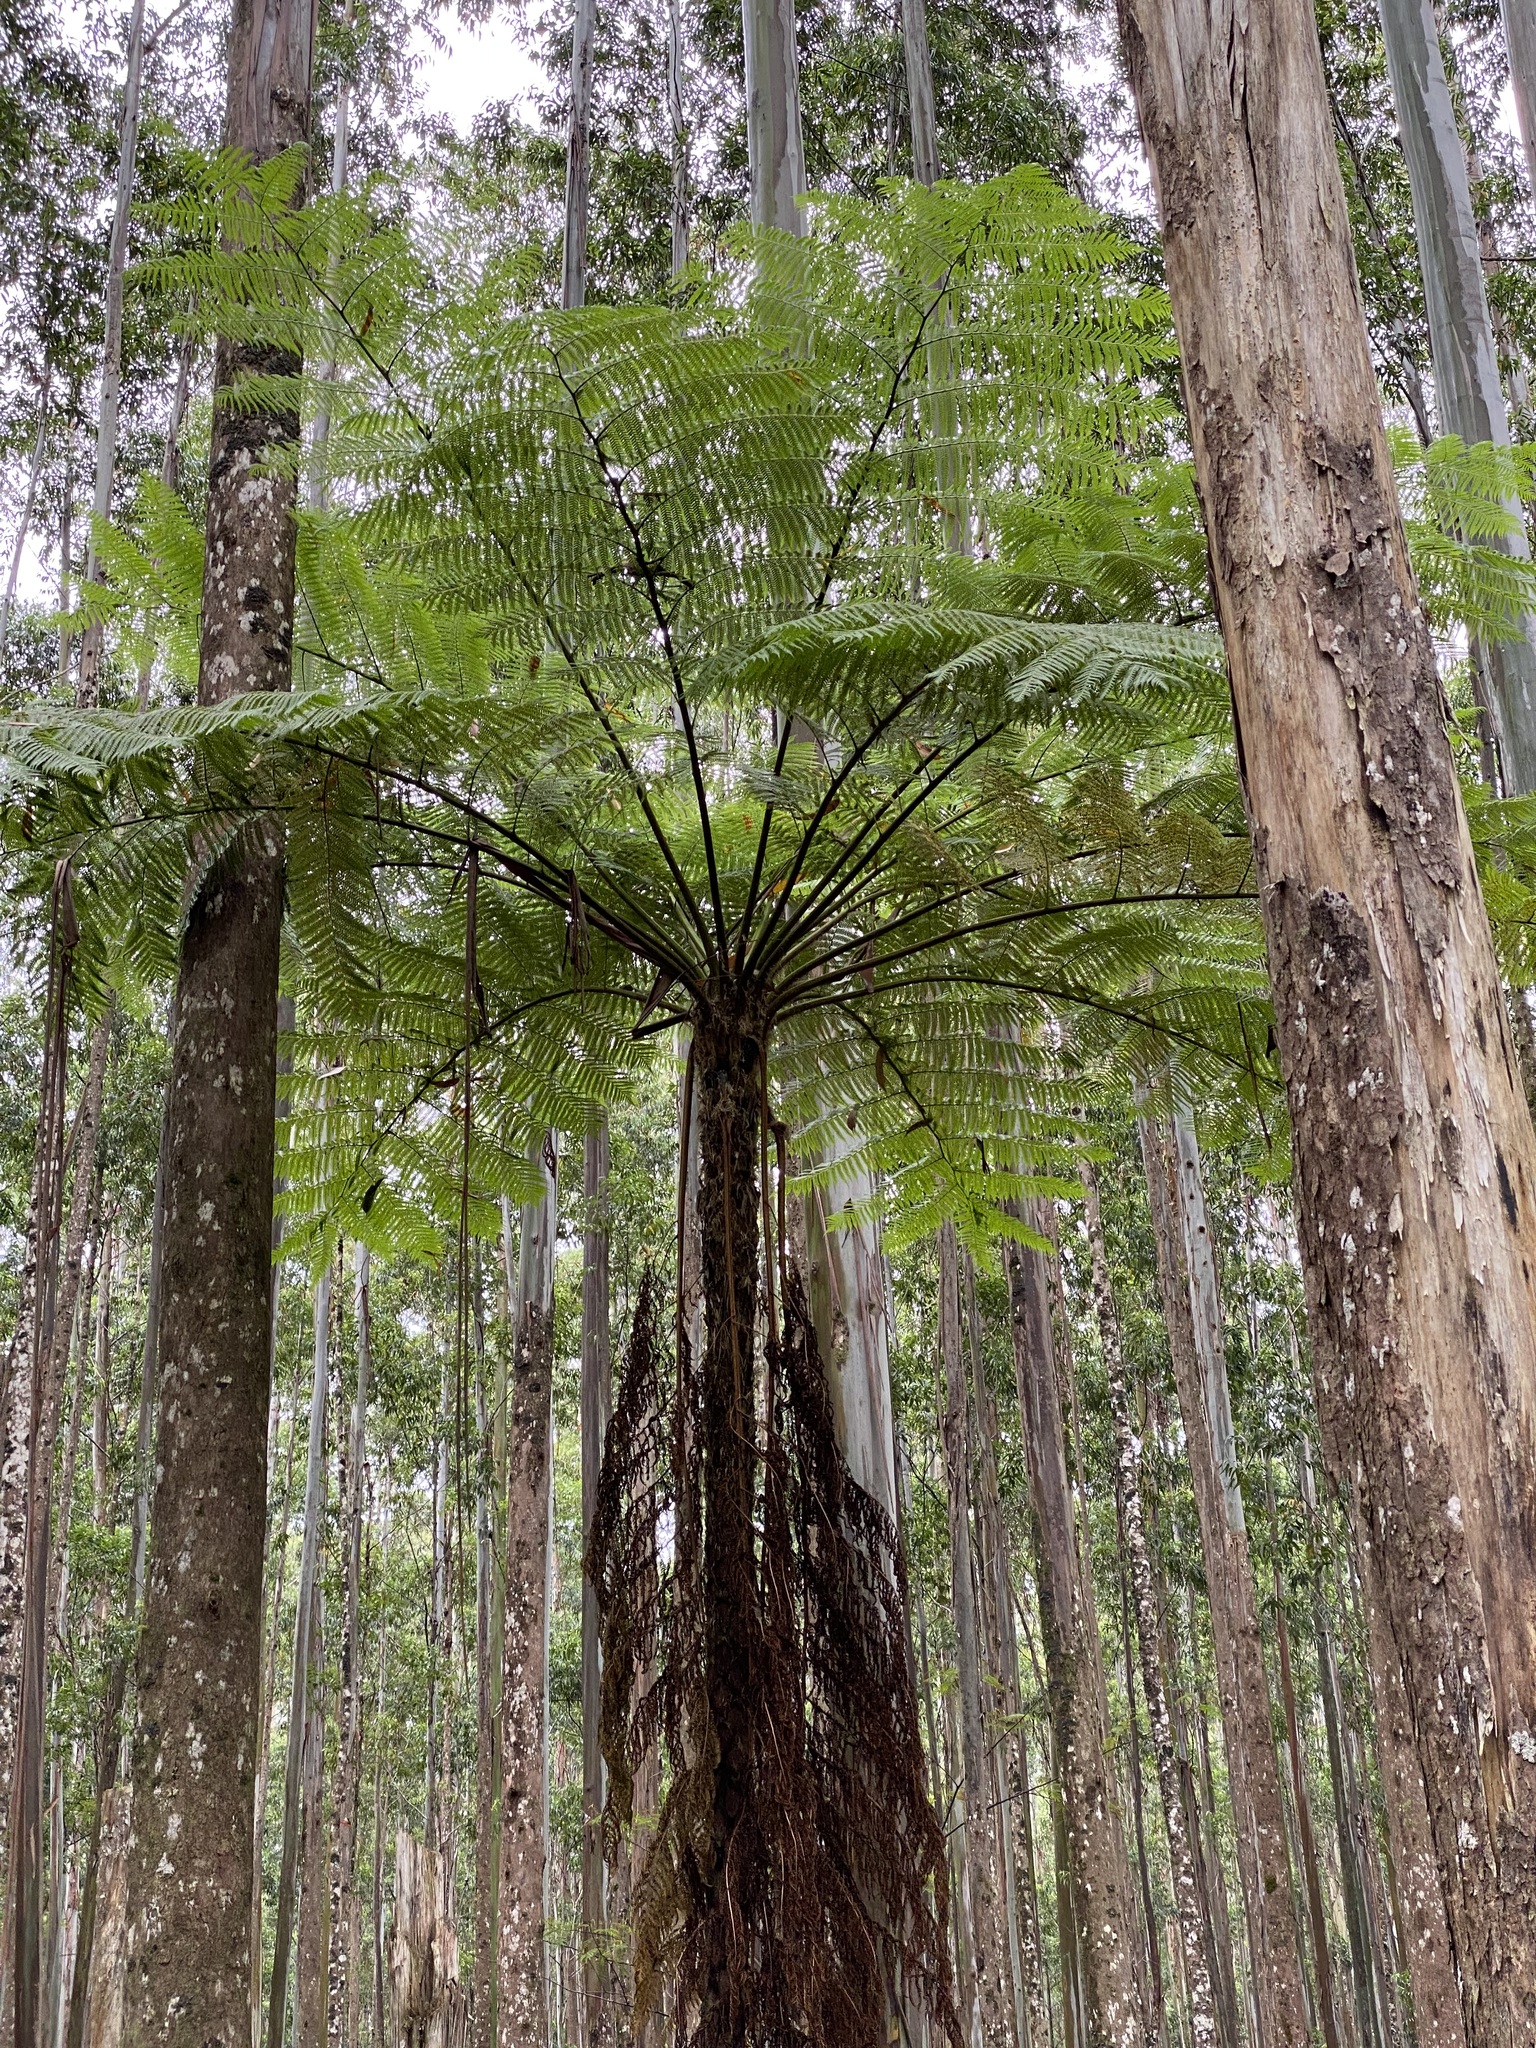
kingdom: Plantae
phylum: Tracheophyta
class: Polypodiopsida
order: Cyatheales
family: Cyatheaceae
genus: Sphaeropteris
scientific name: Sphaeropteris cooperi
